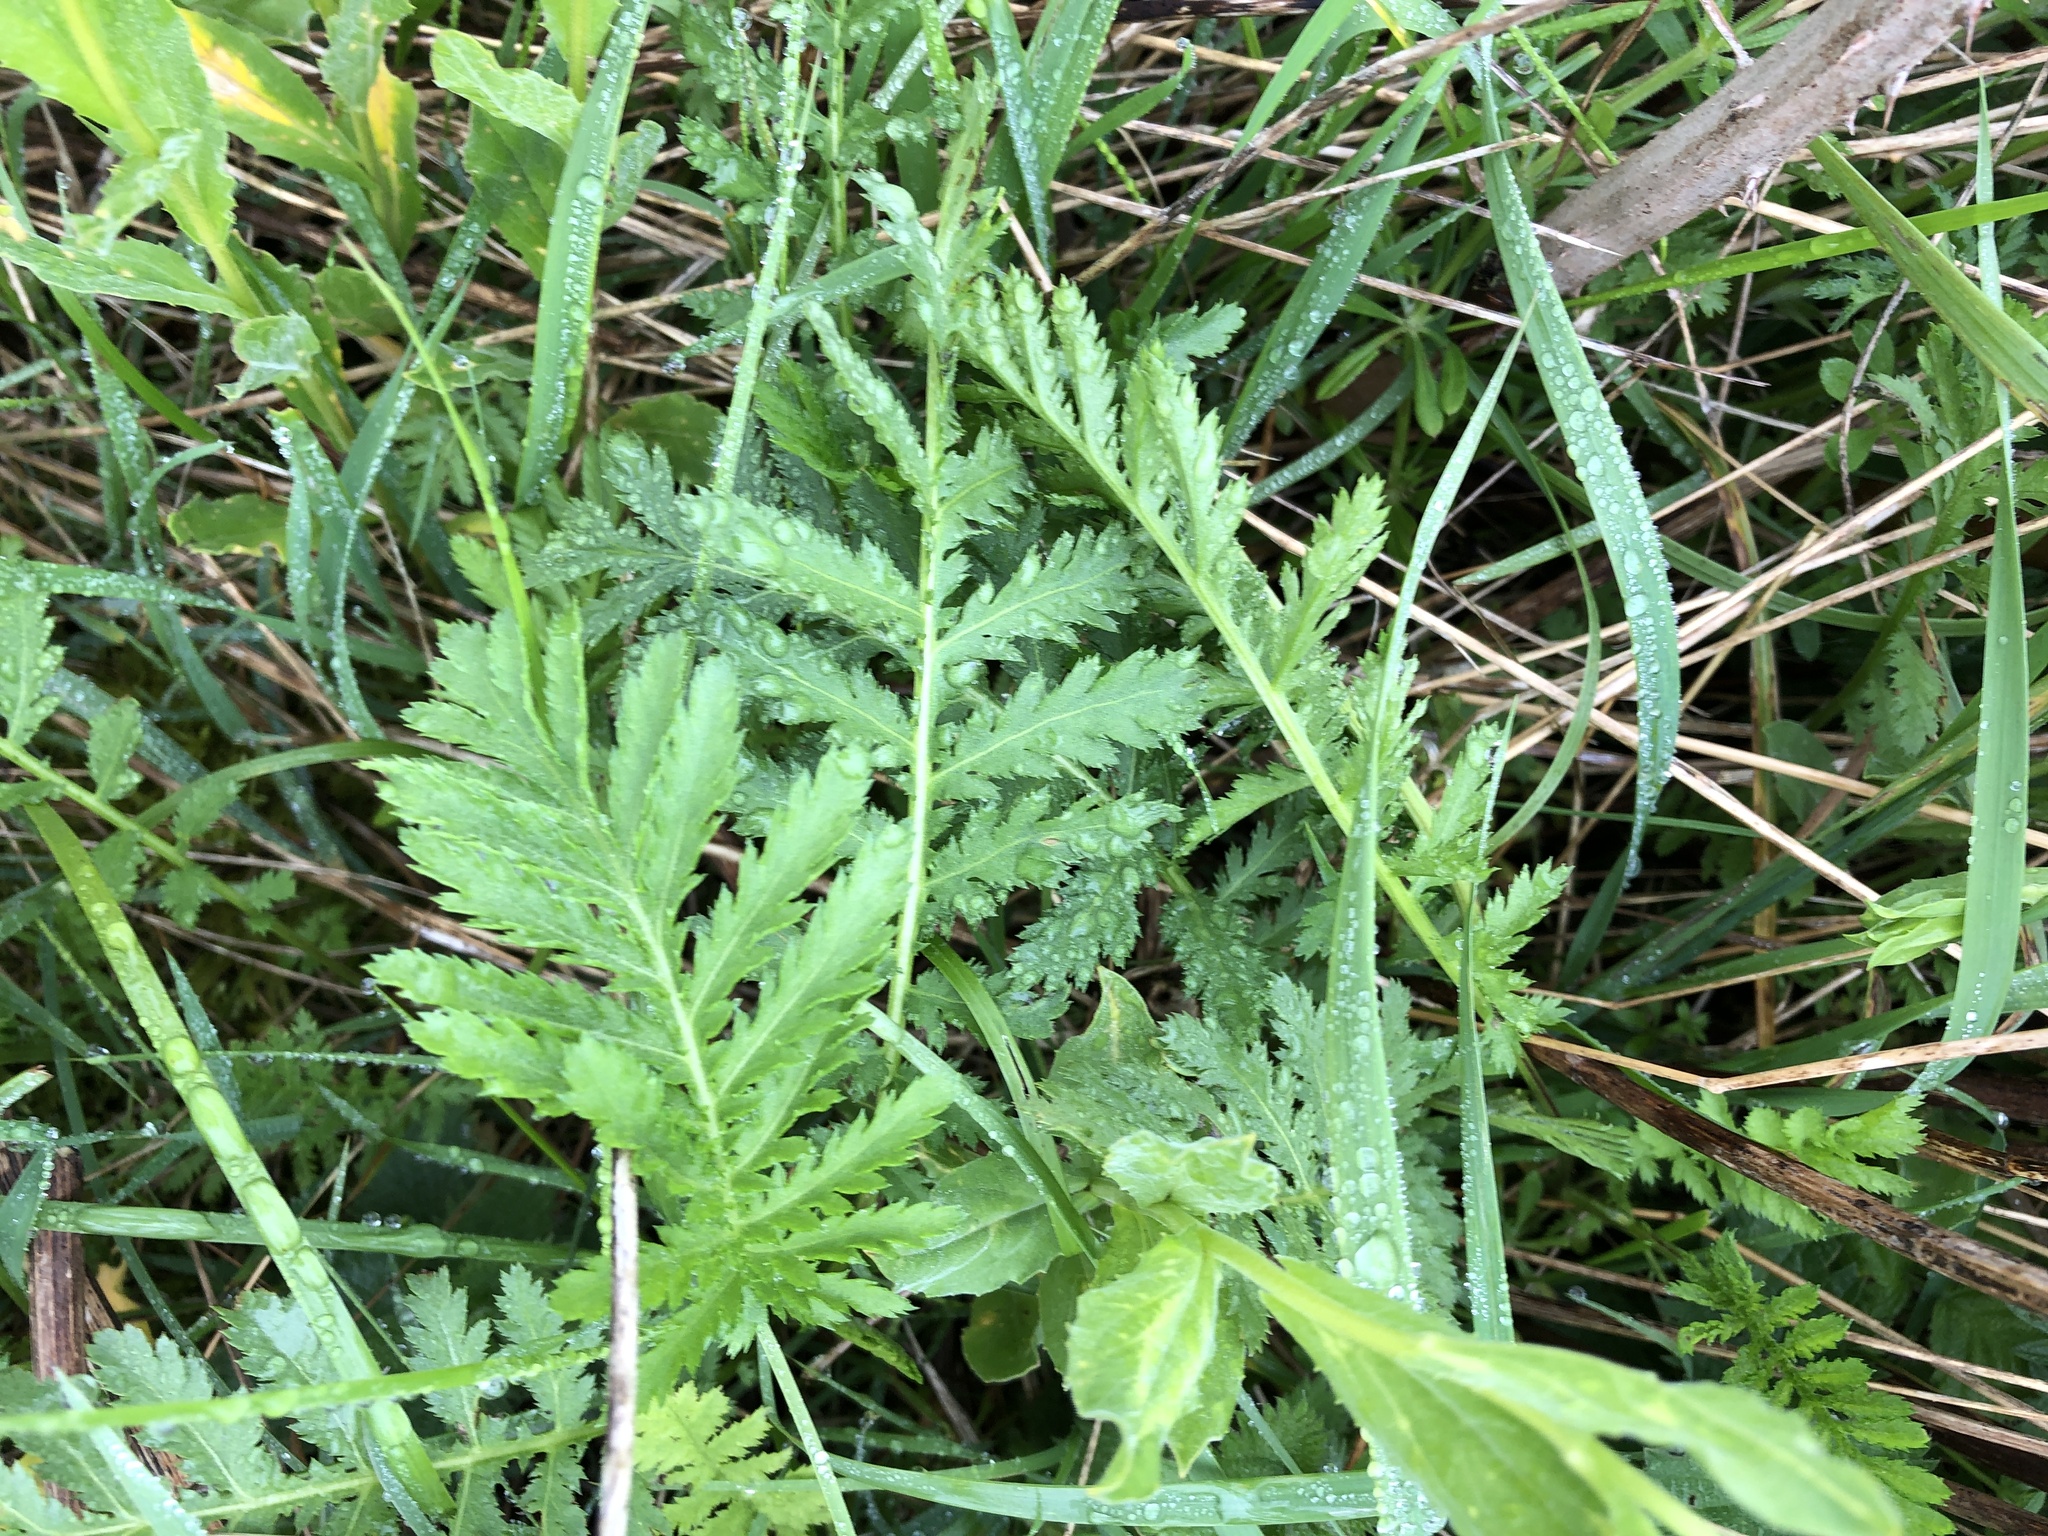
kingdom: Plantae
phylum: Tracheophyta
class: Magnoliopsida
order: Asterales
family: Asteraceae
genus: Tanacetum
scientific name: Tanacetum vulgare
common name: Common tansy
